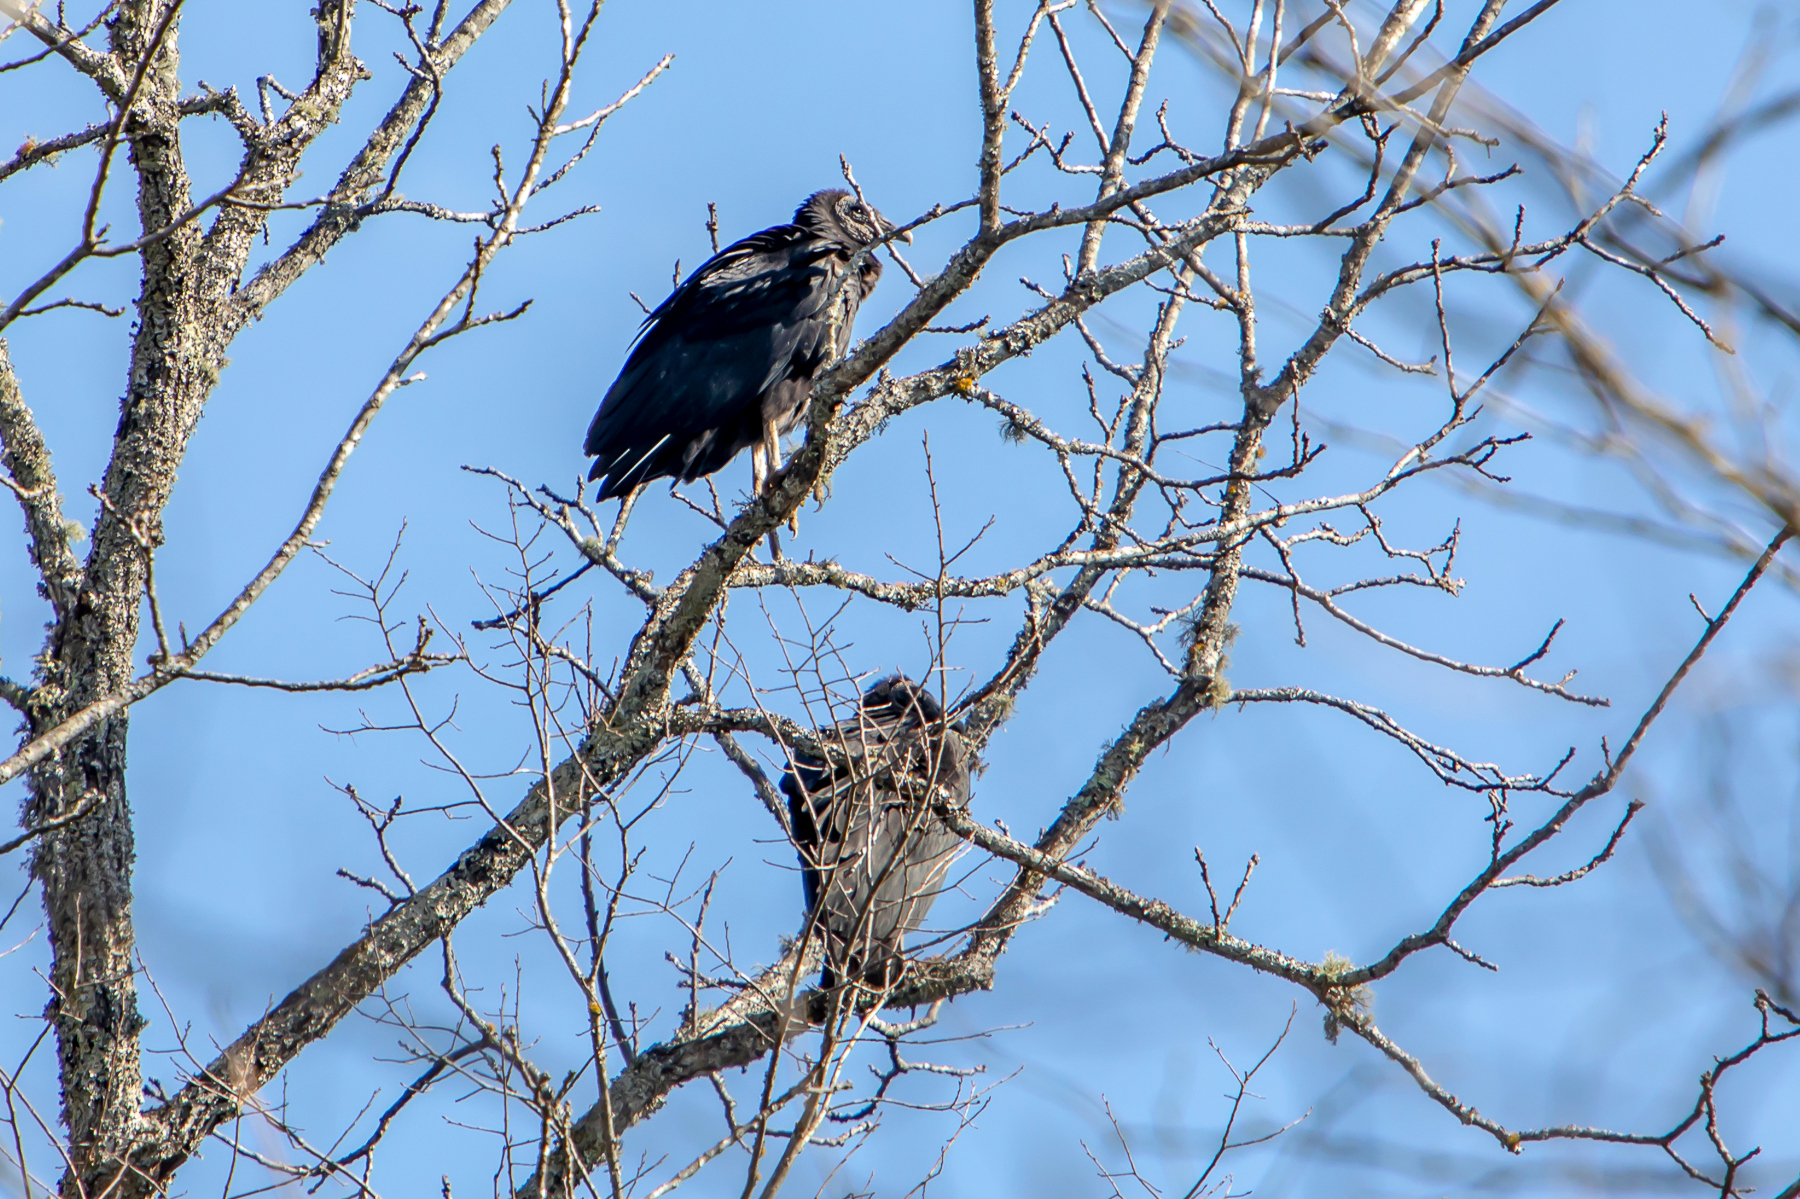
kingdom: Animalia
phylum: Chordata
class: Aves
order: Accipitriformes
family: Cathartidae
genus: Coragyps
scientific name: Coragyps atratus
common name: Black vulture
